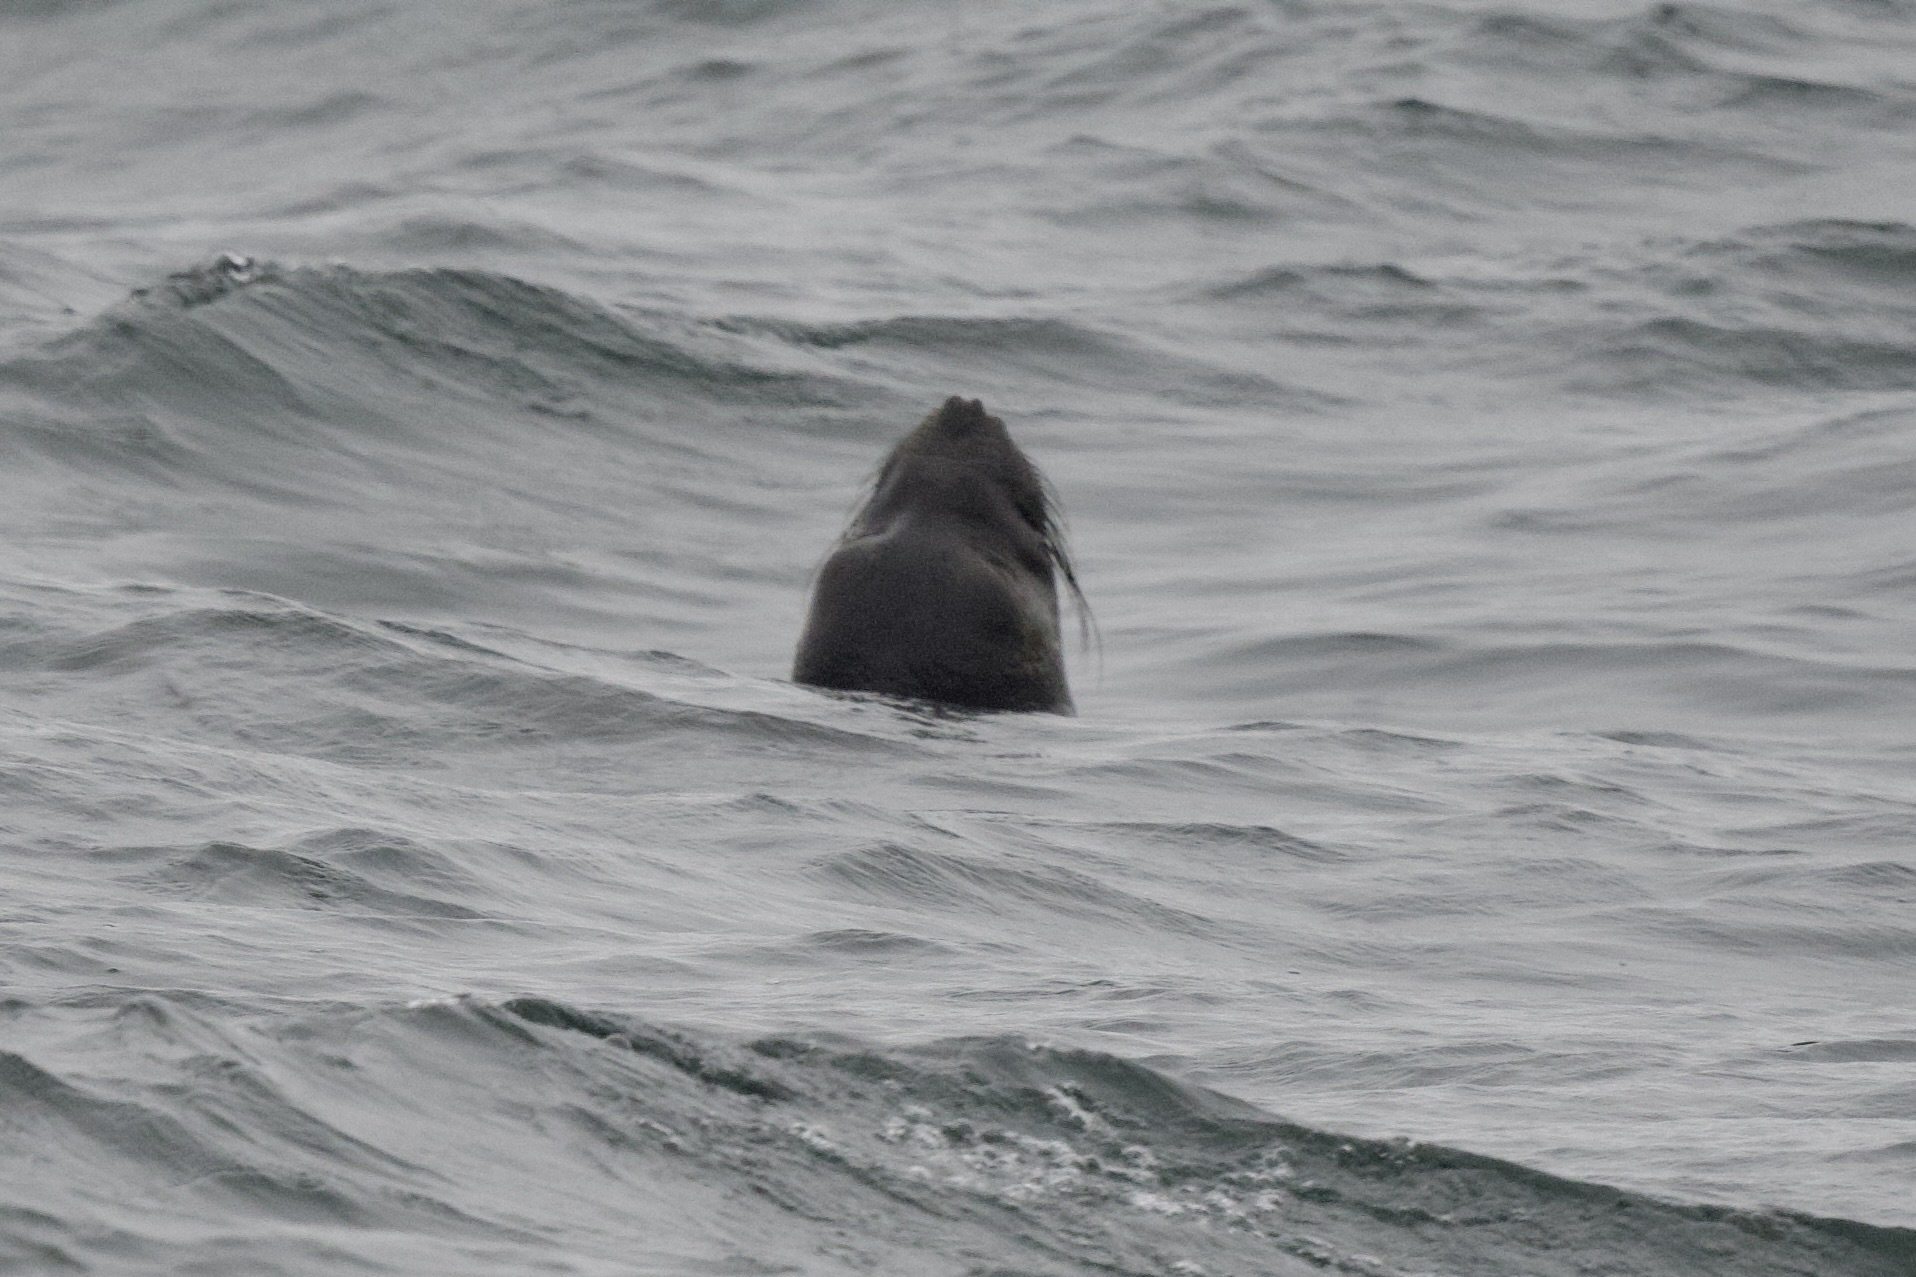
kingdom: Animalia
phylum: Chordata
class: Mammalia
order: Carnivora
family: Phocidae
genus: Mirounga
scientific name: Mirounga angustirostris
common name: Northern elephant seal
